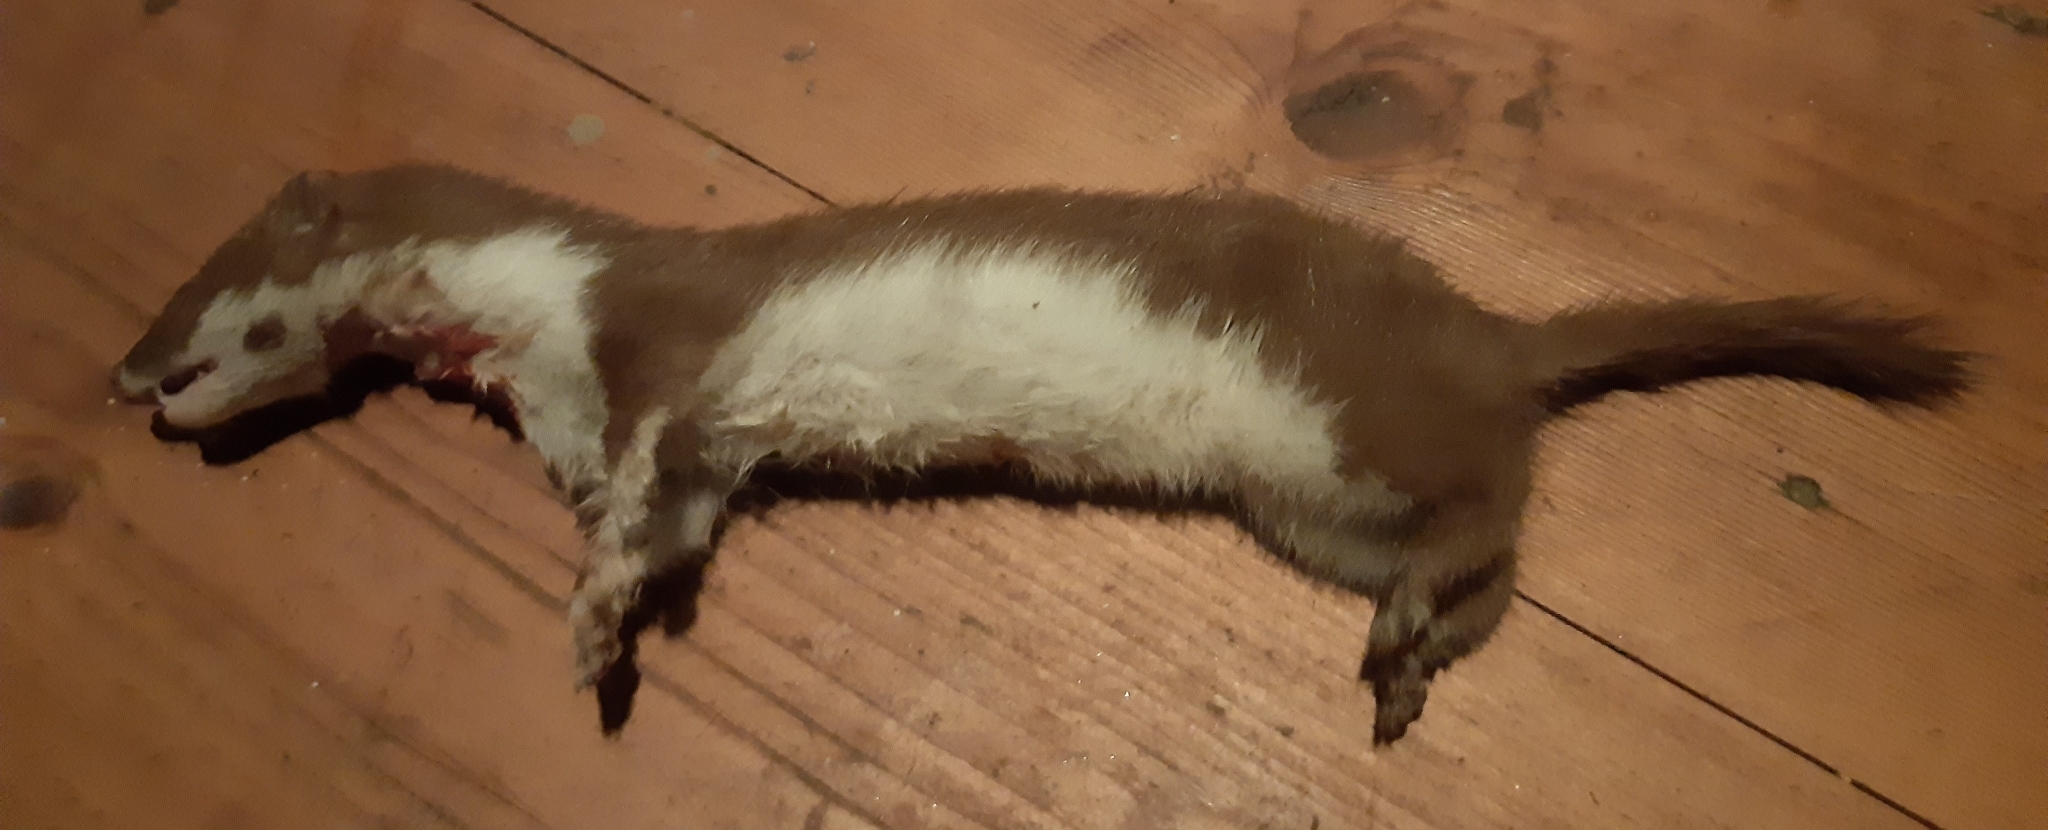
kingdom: Animalia
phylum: Chordata
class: Mammalia
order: Carnivora
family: Mustelidae
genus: Mustela
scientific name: Mustela nivalis
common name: Least weasel
